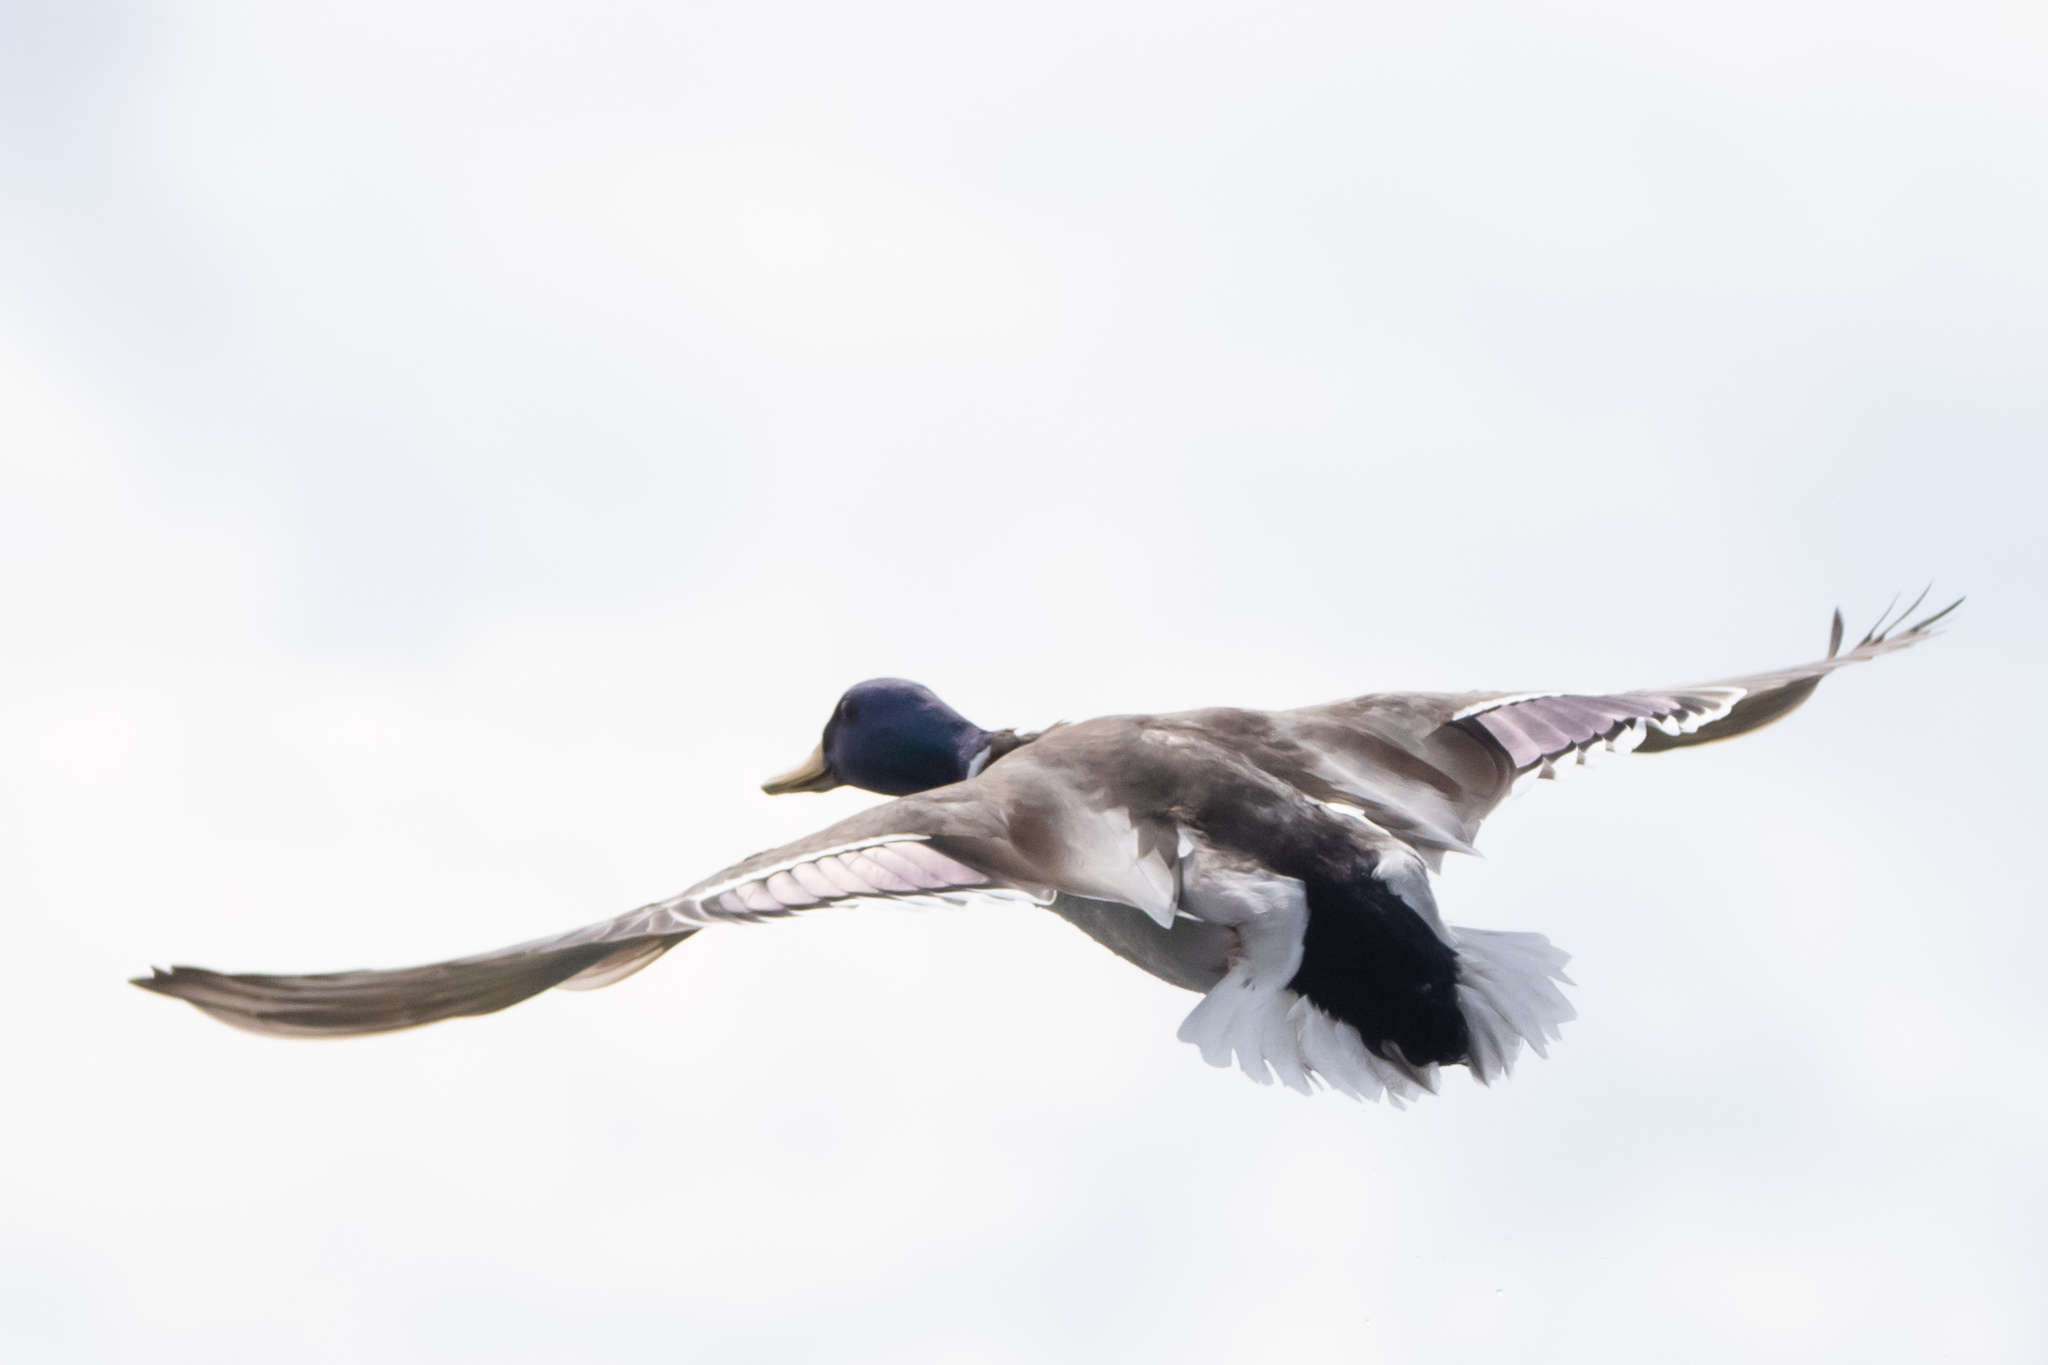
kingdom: Animalia
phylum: Chordata
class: Aves
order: Anseriformes
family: Anatidae
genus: Anas
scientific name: Anas platyrhynchos
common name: Mallard
